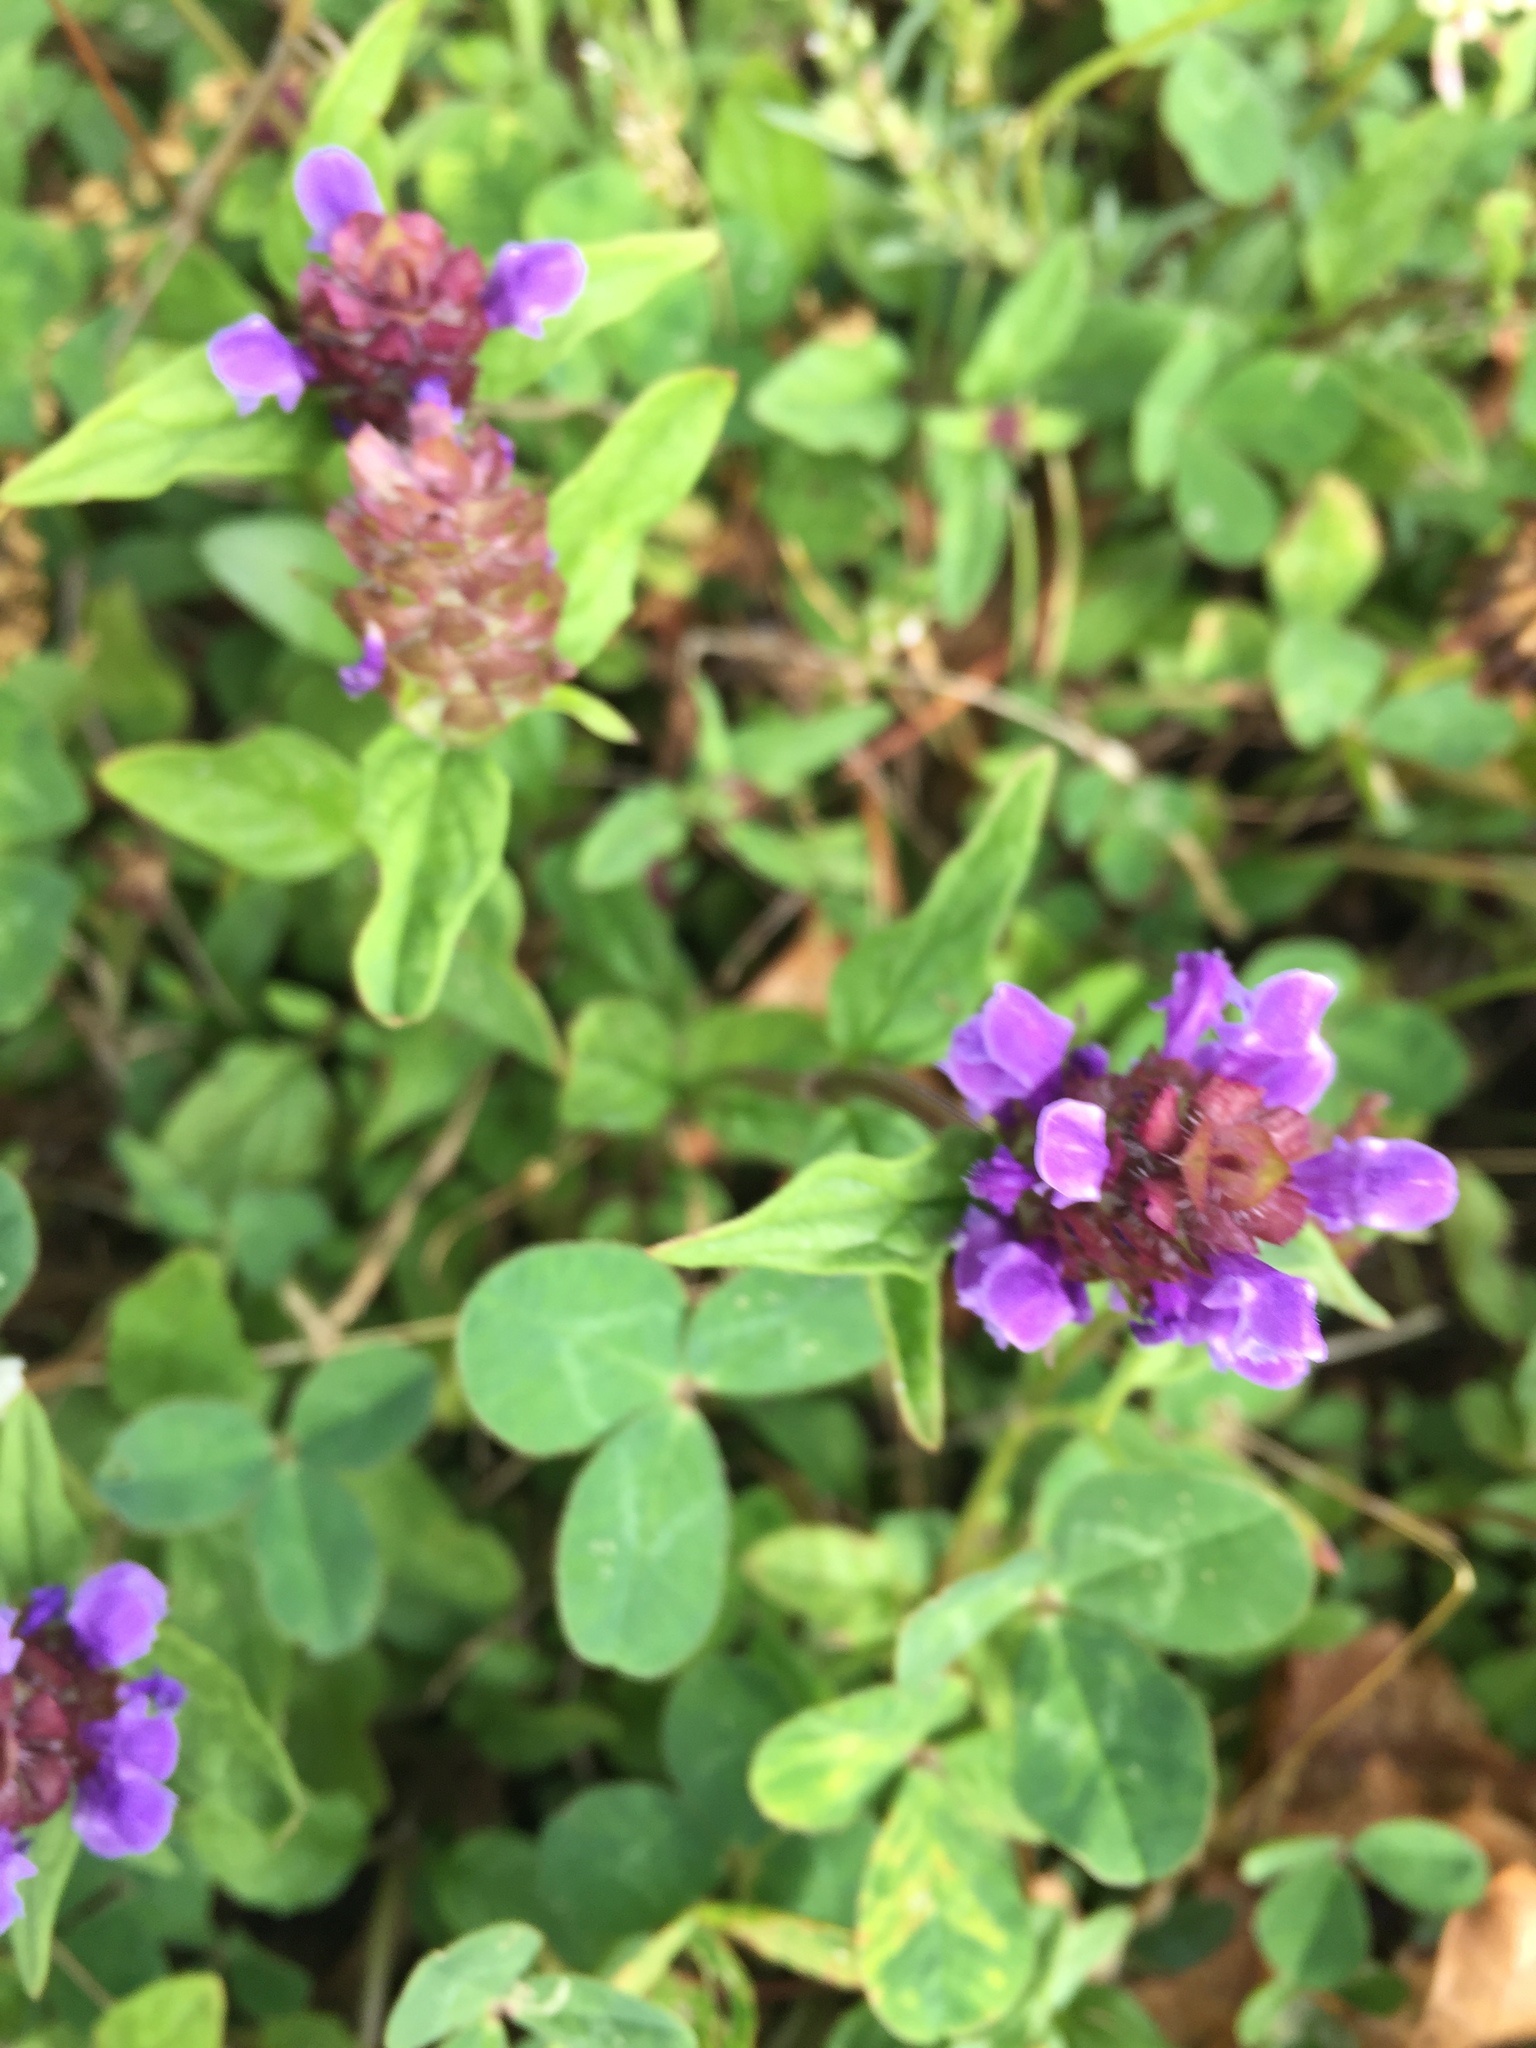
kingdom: Plantae
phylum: Tracheophyta
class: Magnoliopsida
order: Lamiales
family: Lamiaceae
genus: Prunella
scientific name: Prunella vulgaris
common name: Heal-all
